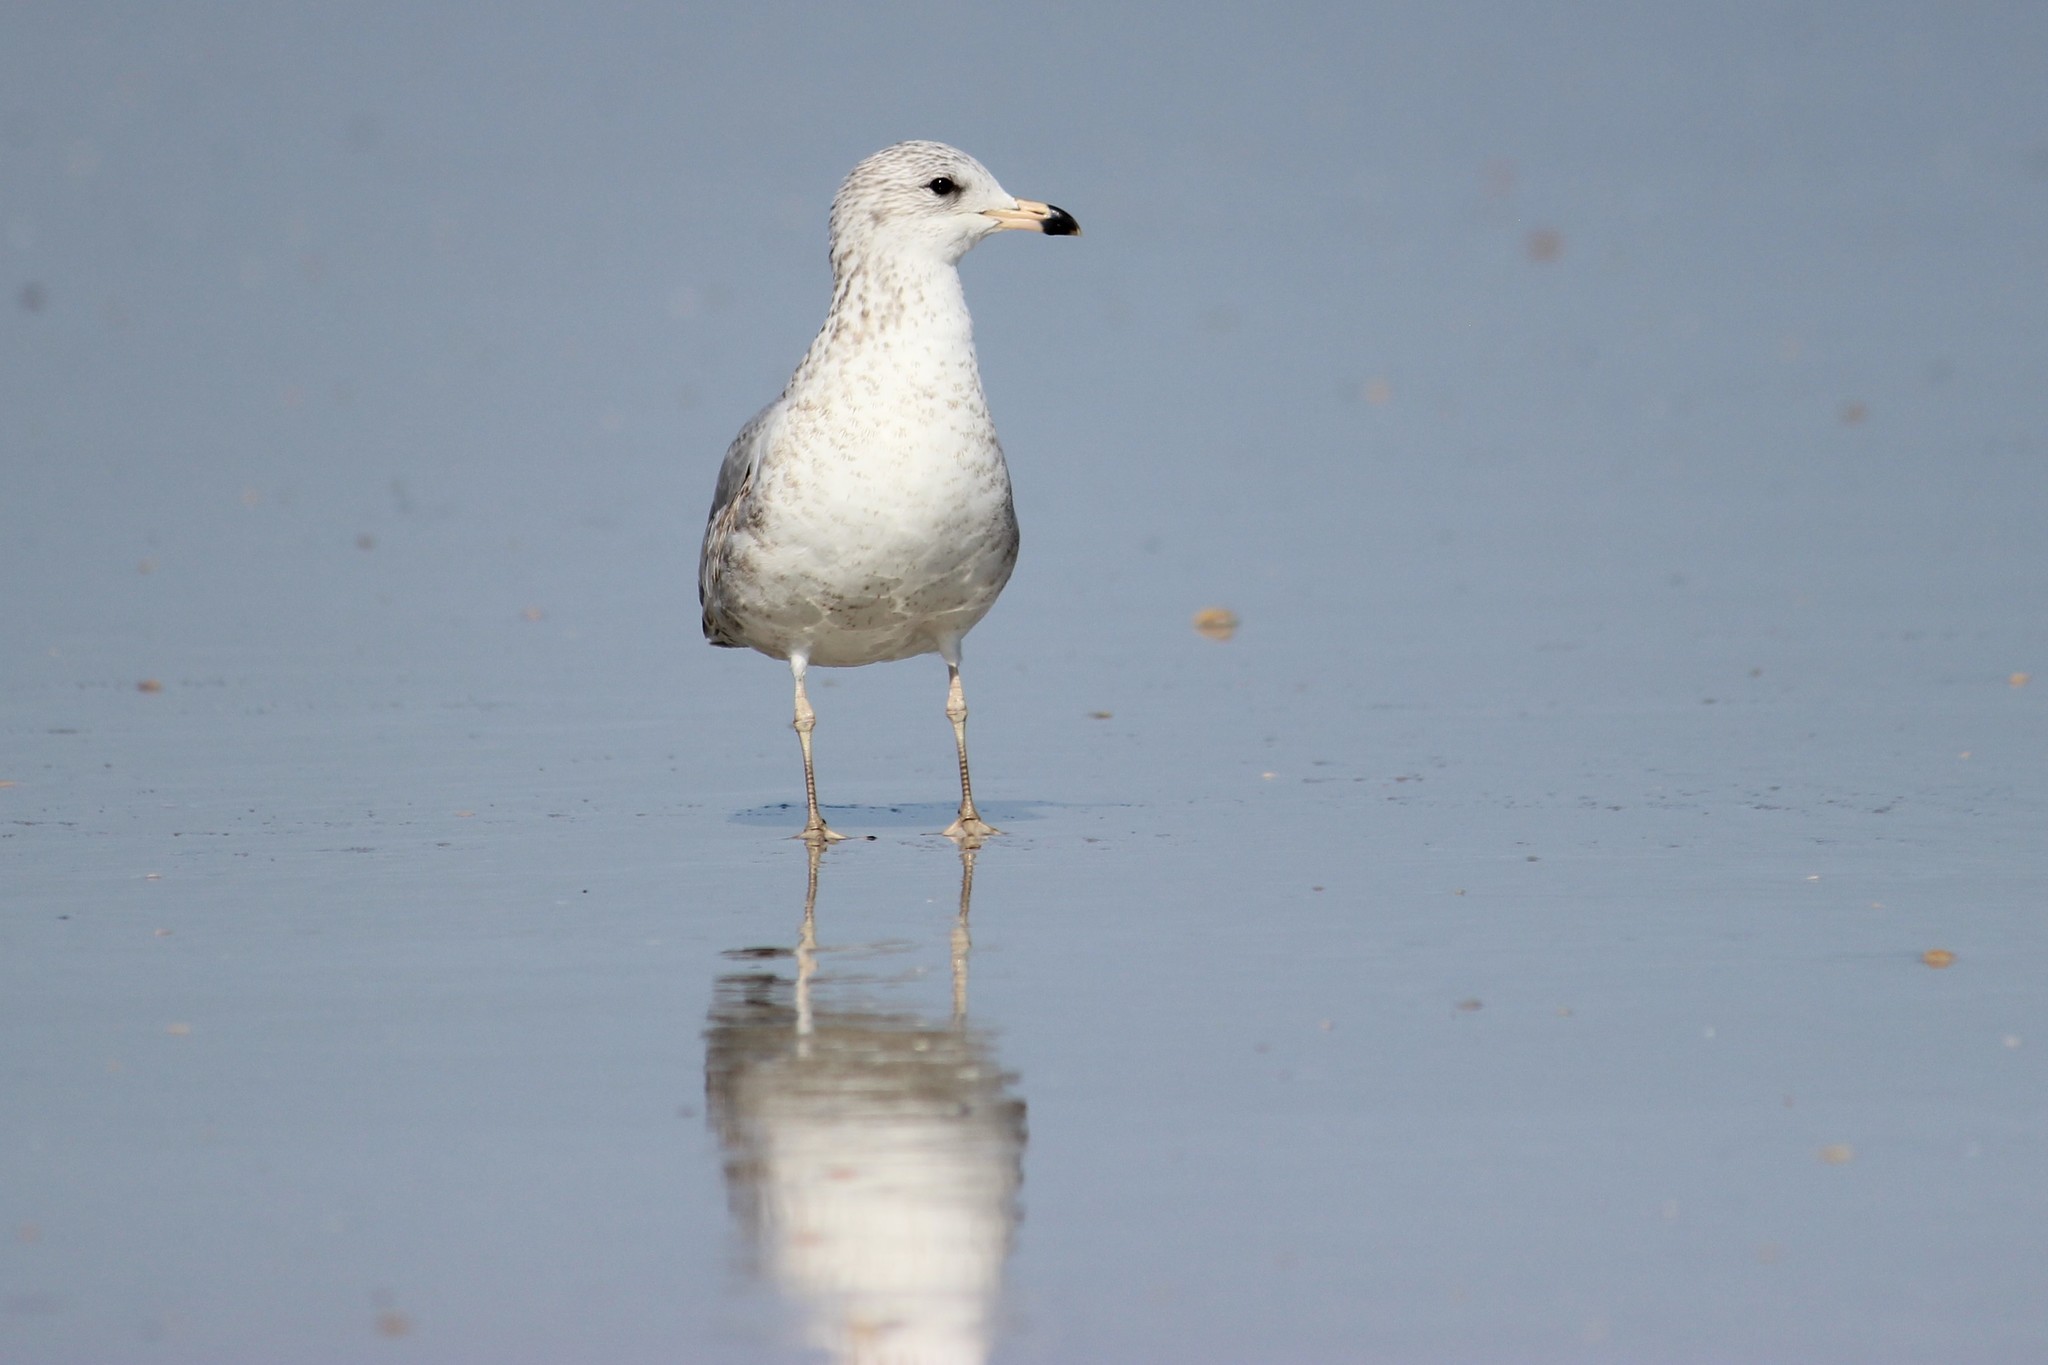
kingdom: Animalia
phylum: Chordata
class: Aves
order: Charadriiformes
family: Laridae
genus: Larus
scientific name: Larus delawarensis
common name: Ring-billed gull
